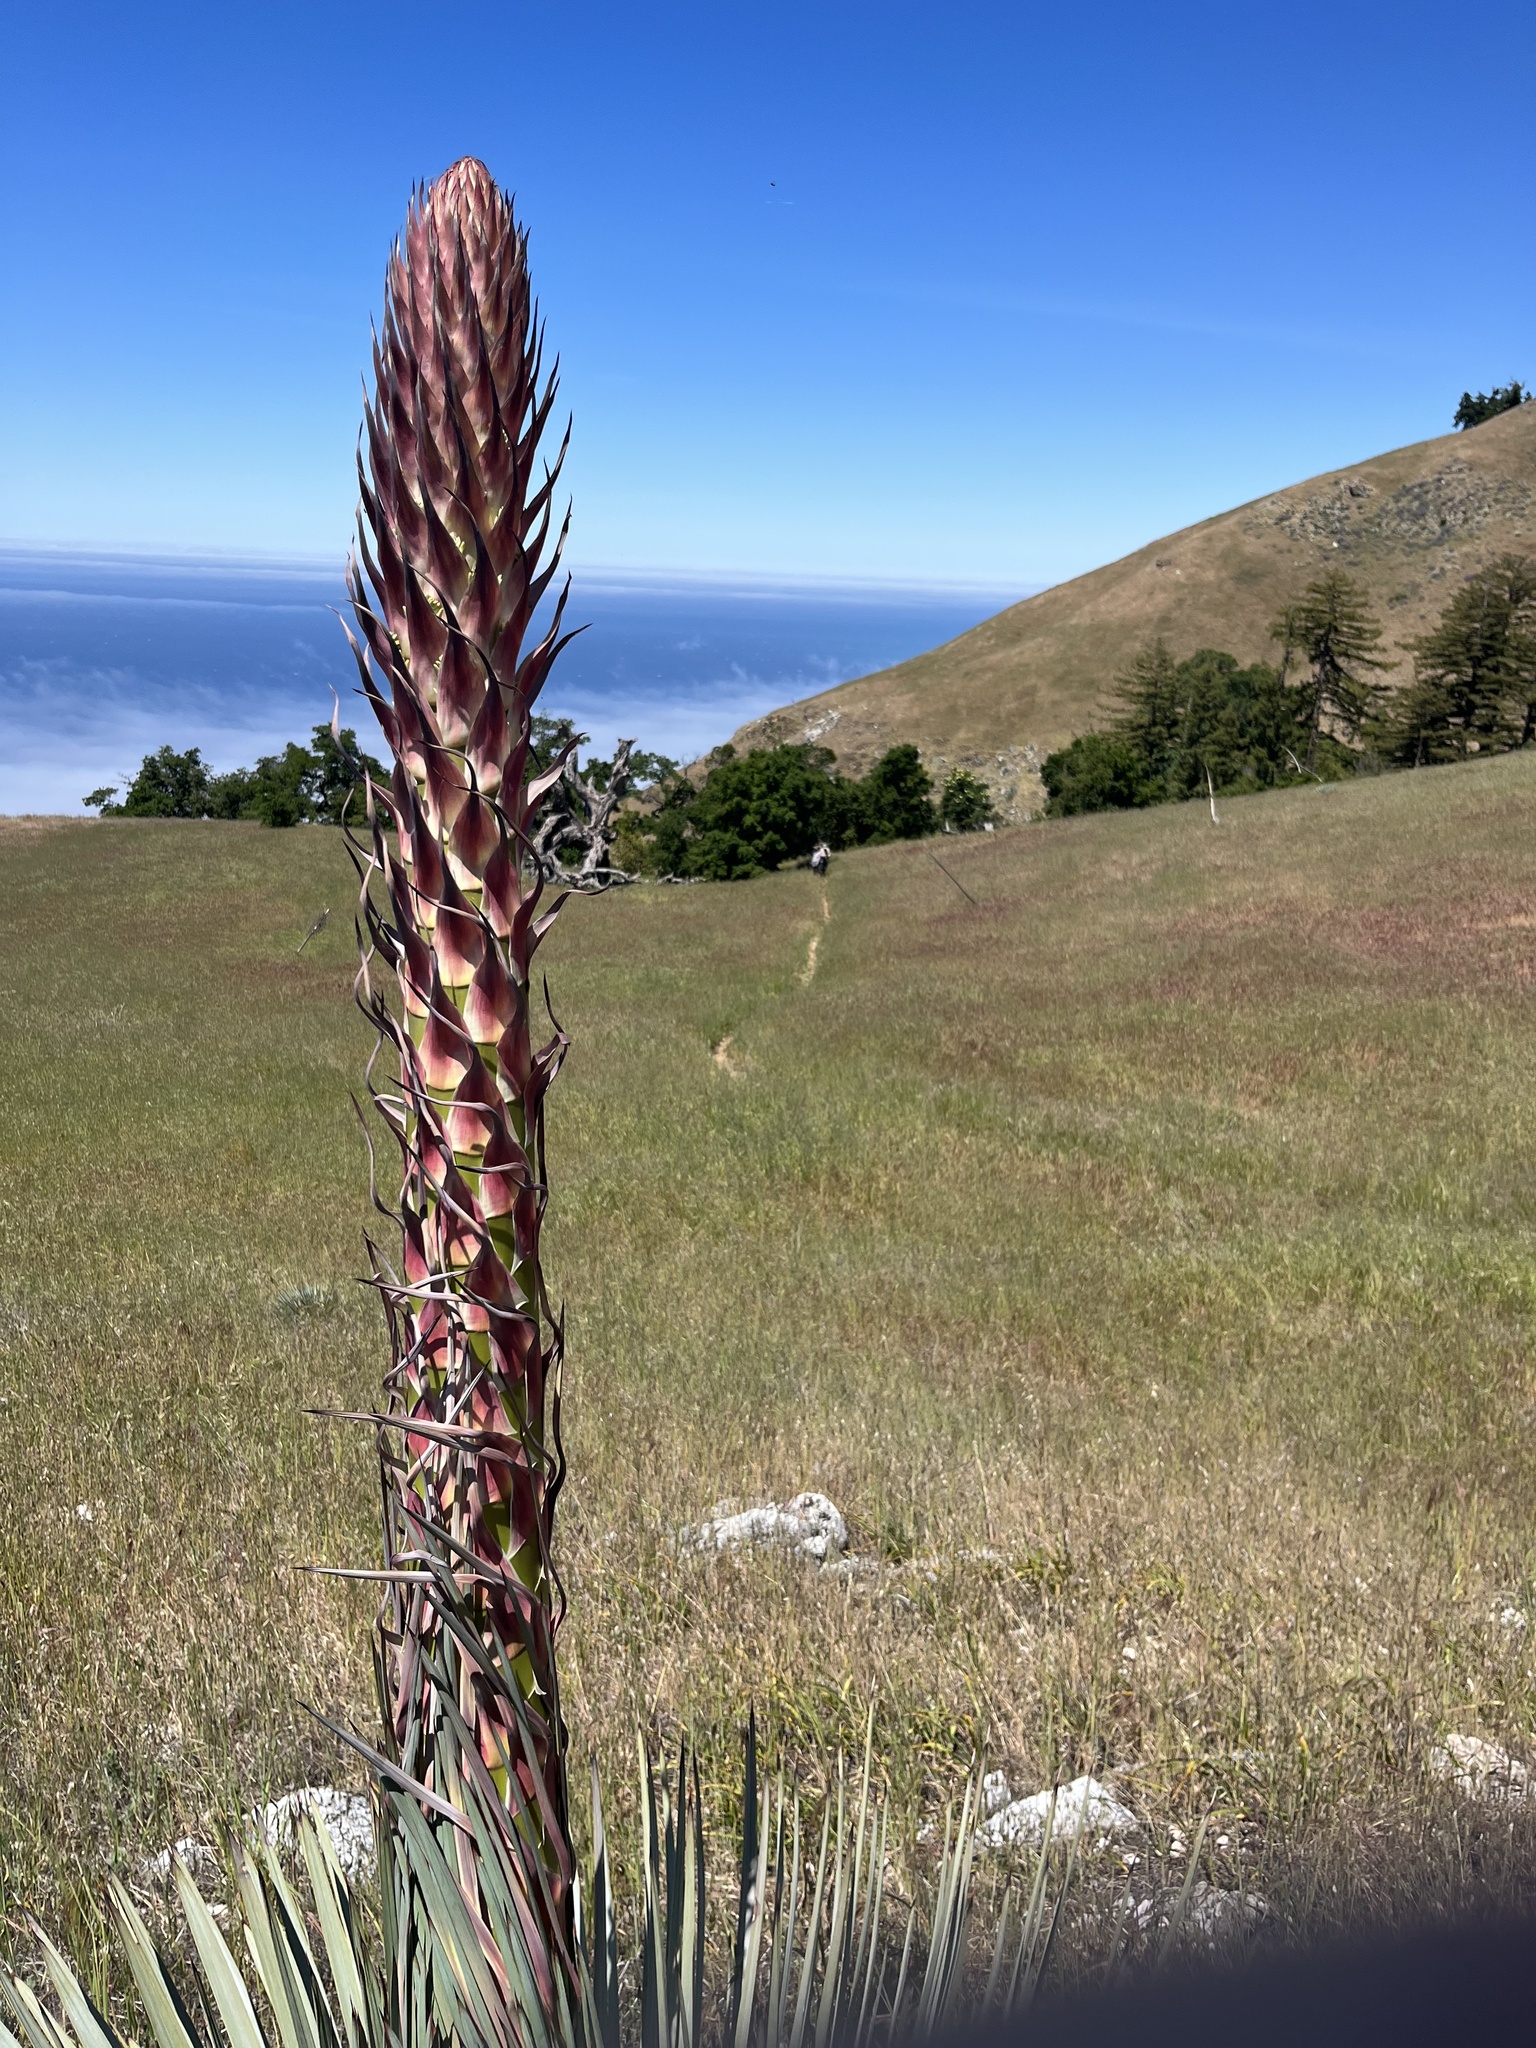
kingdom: Plantae
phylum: Tracheophyta
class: Liliopsida
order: Asparagales
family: Asparagaceae
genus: Hesperoyucca
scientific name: Hesperoyucca whipplei
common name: Our lord's-candle
